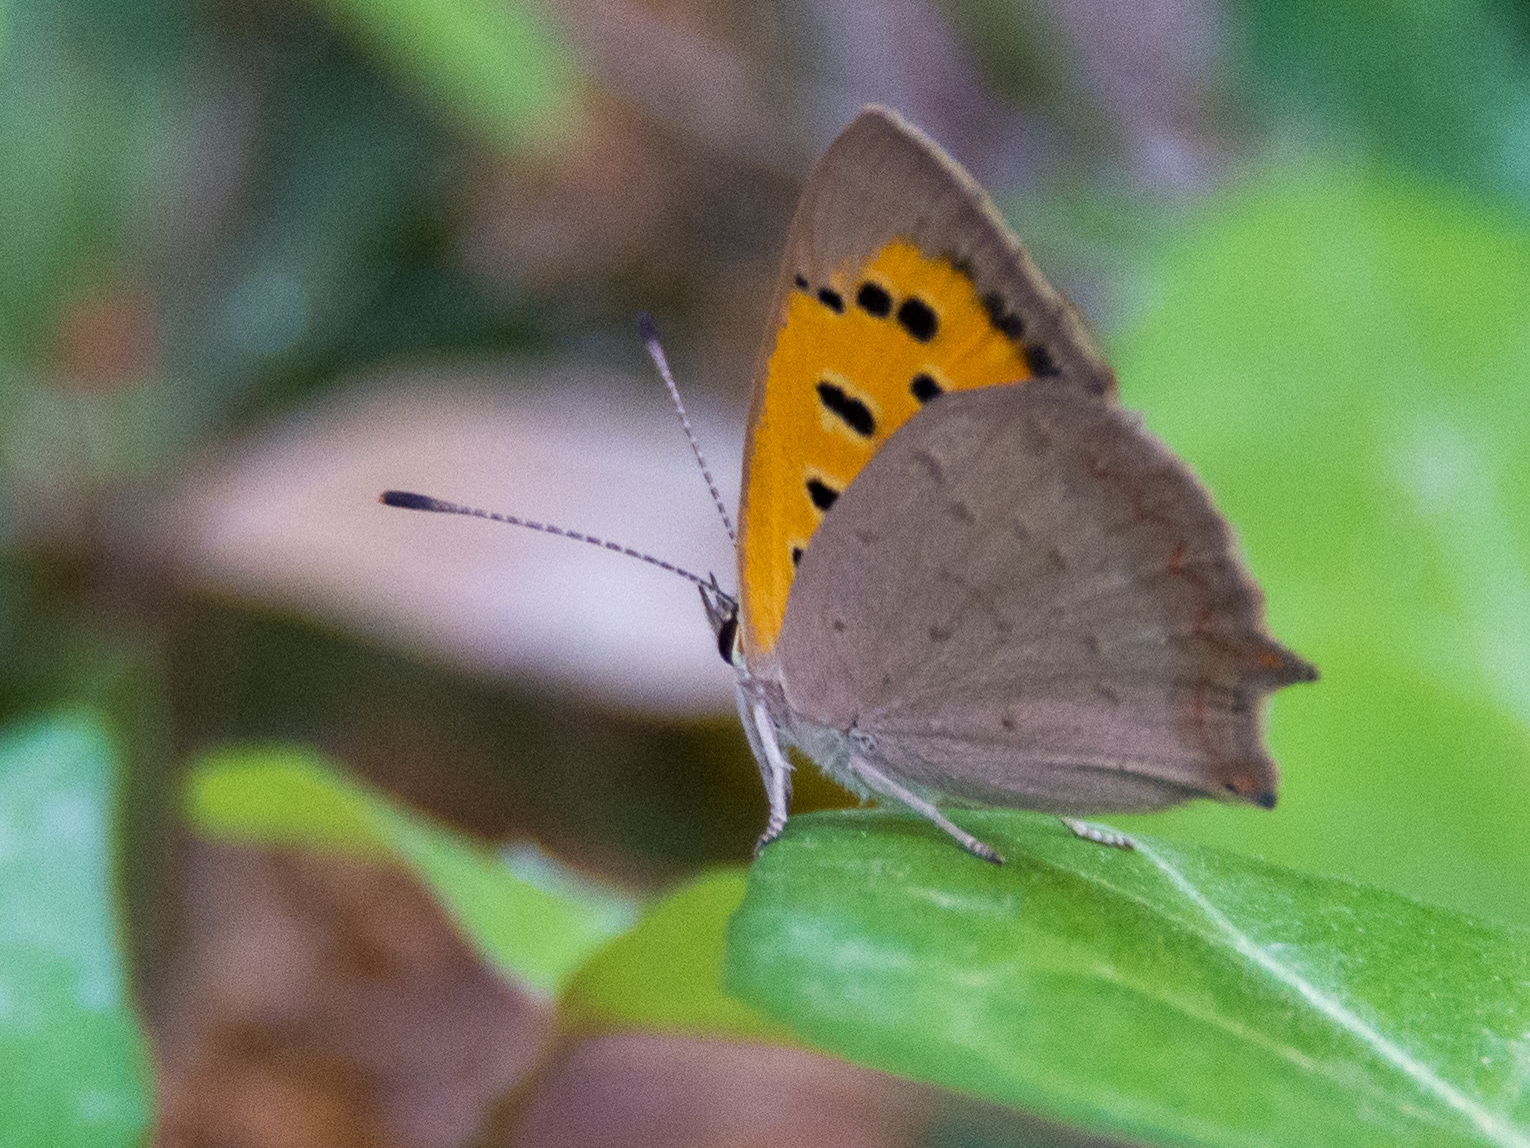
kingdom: Animalia
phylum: Arthropoda
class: Insecta
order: Lepidoptera
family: Lycaenidae
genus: Lycaena
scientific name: Lycaena phlaeas
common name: Small copper
